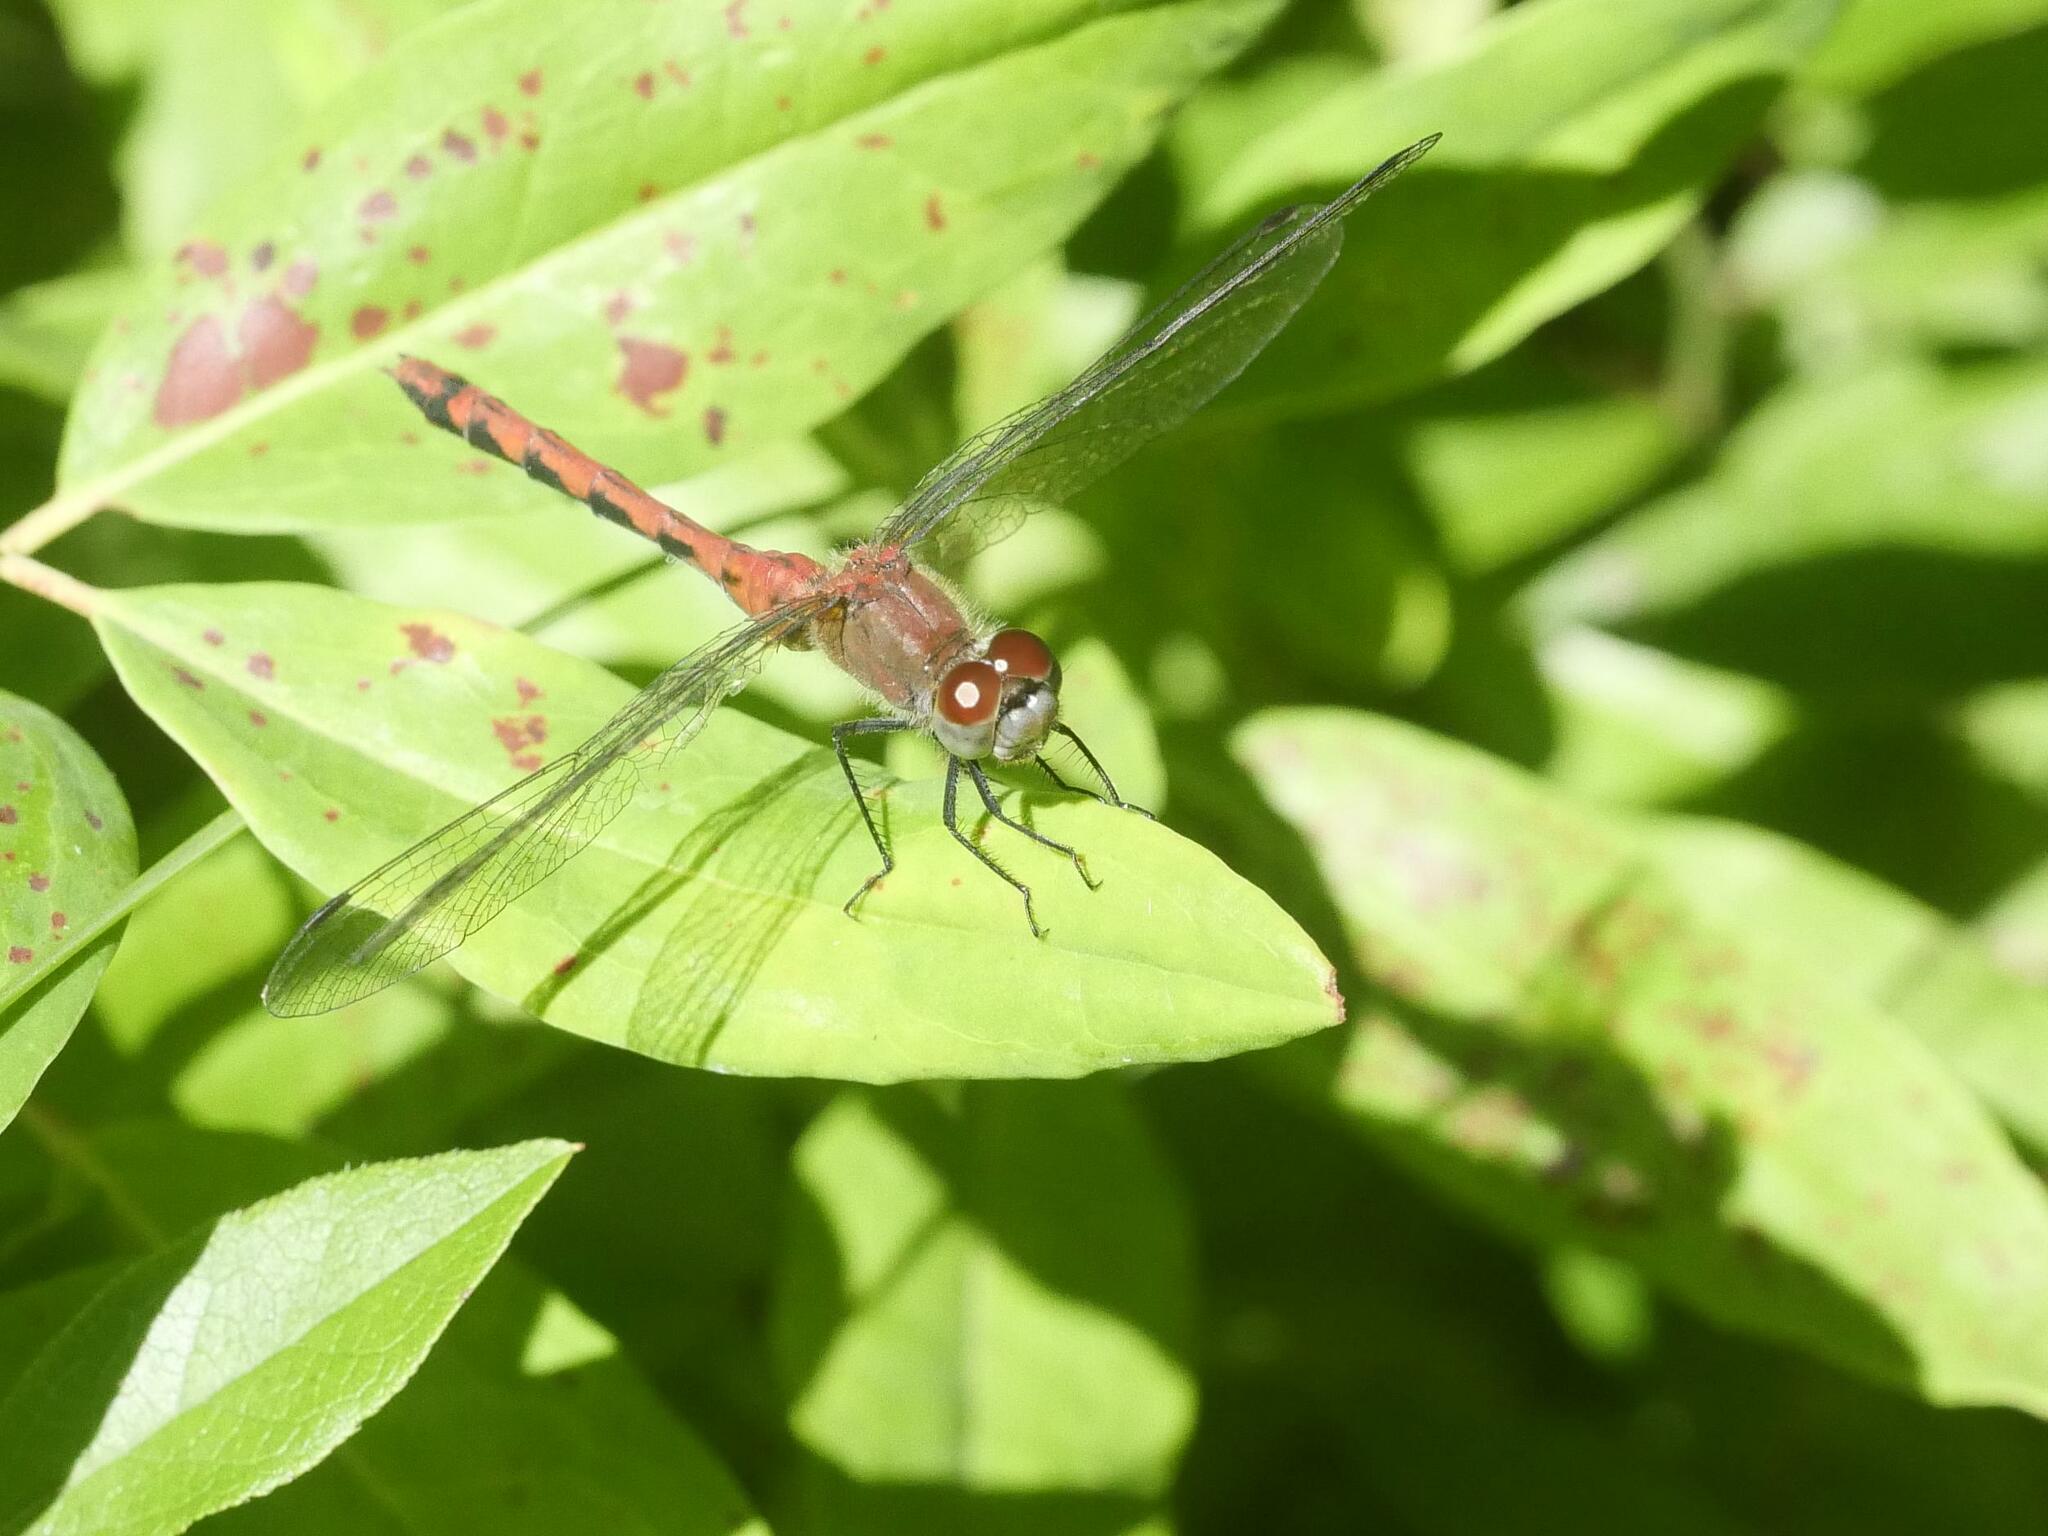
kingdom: Animalia
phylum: Arthropoda
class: Insecta
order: Odonata
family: Libellulidae
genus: Sympetrum
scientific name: Sympetrum obtrusum
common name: White-faced meadowhawk
